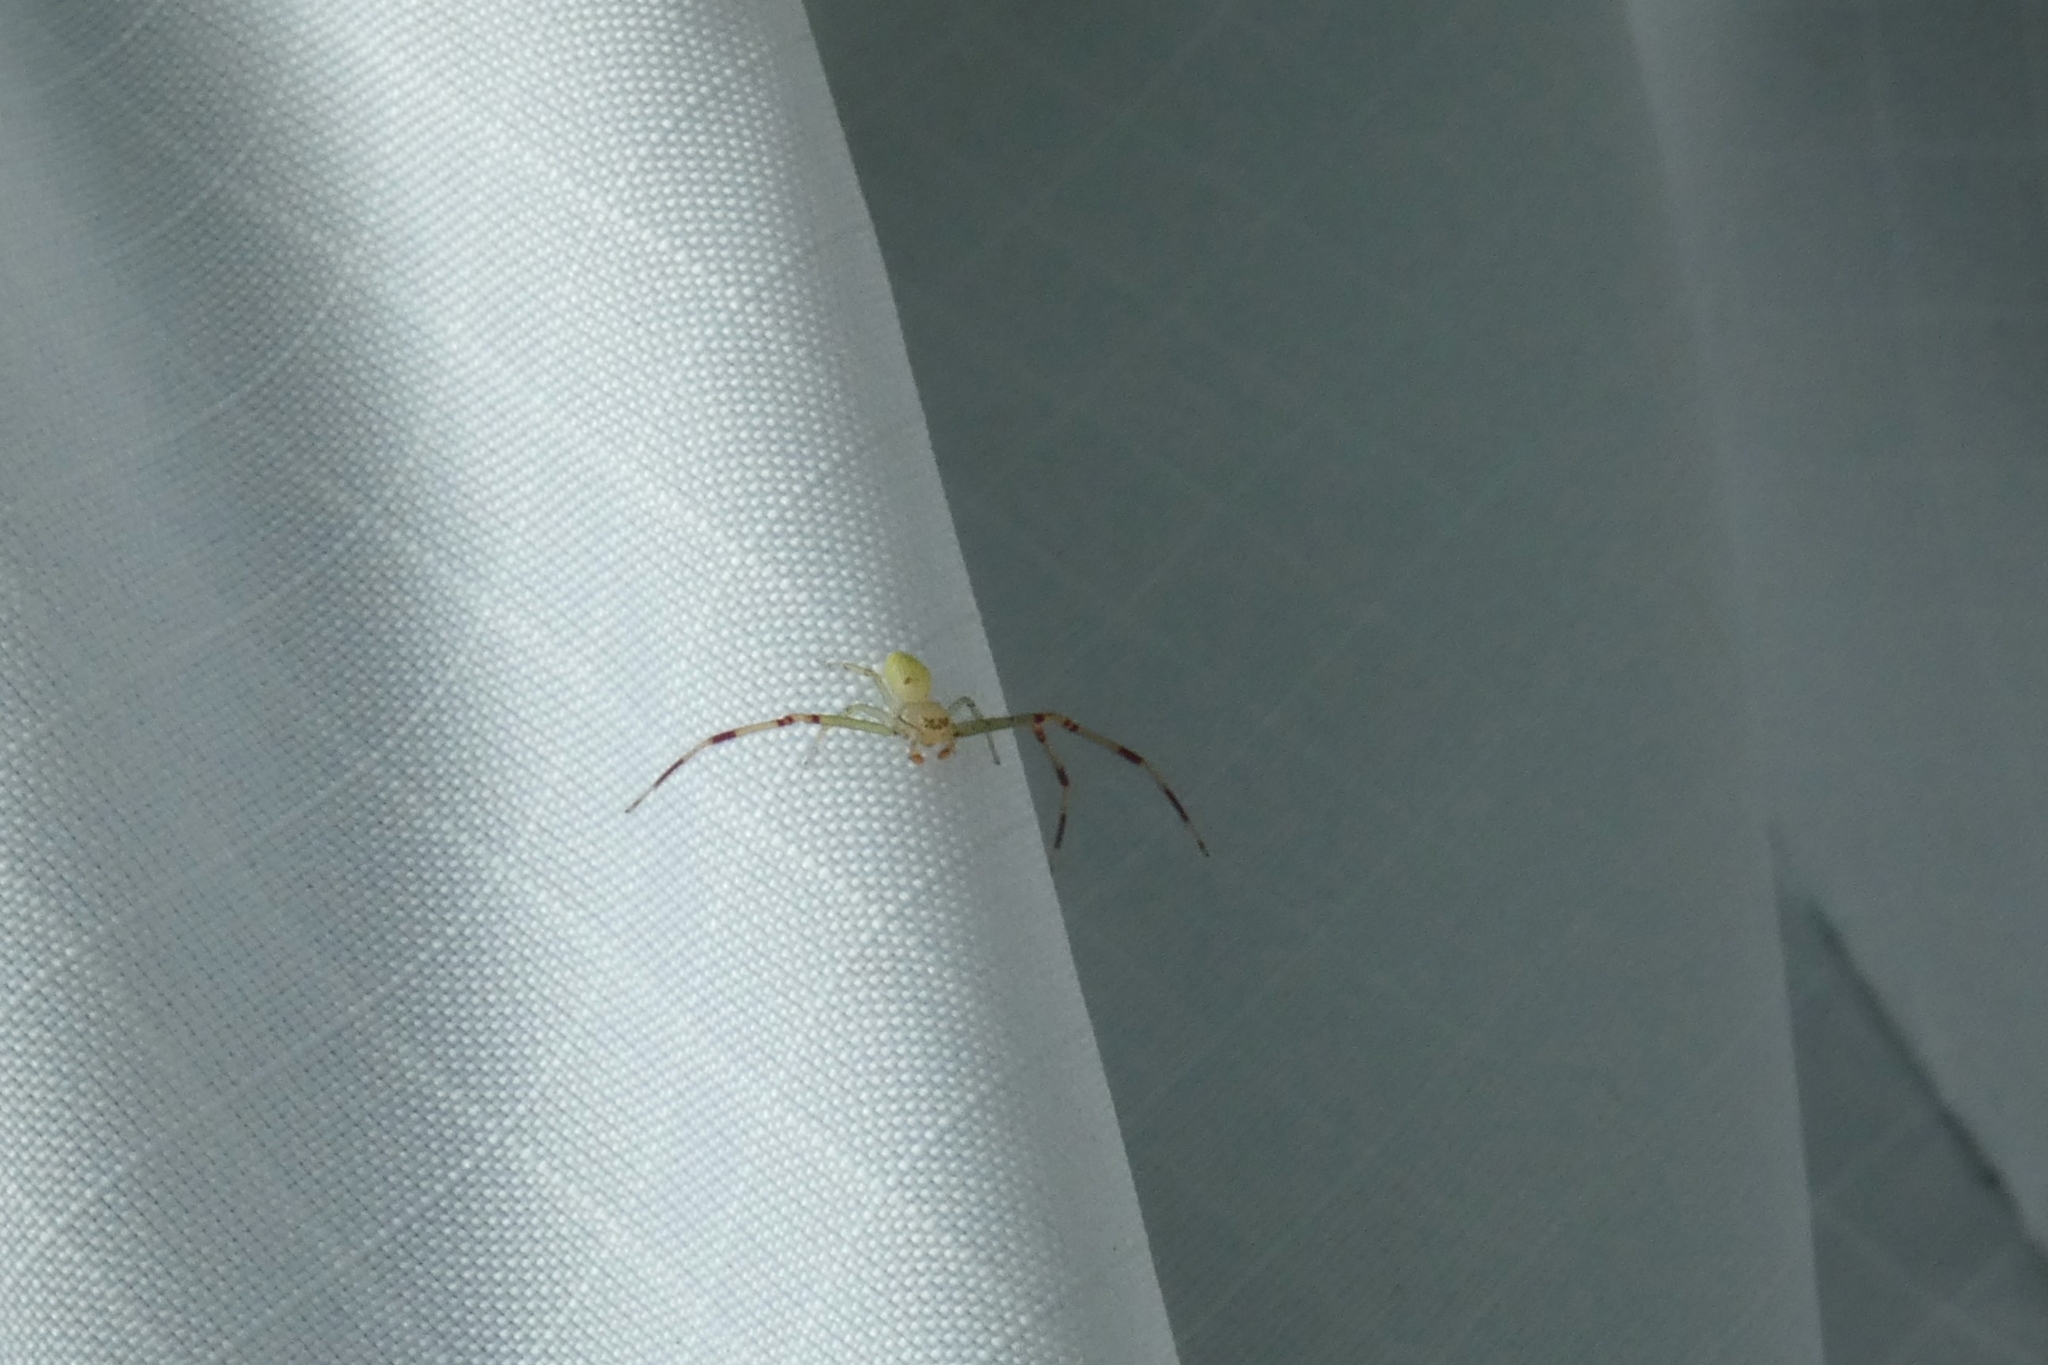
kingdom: Animalia
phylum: Arthropoda
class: Arachnida
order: Araneae
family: Thomisidae
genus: Misumessus
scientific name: Misumessus oblongus
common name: American green crab spider
